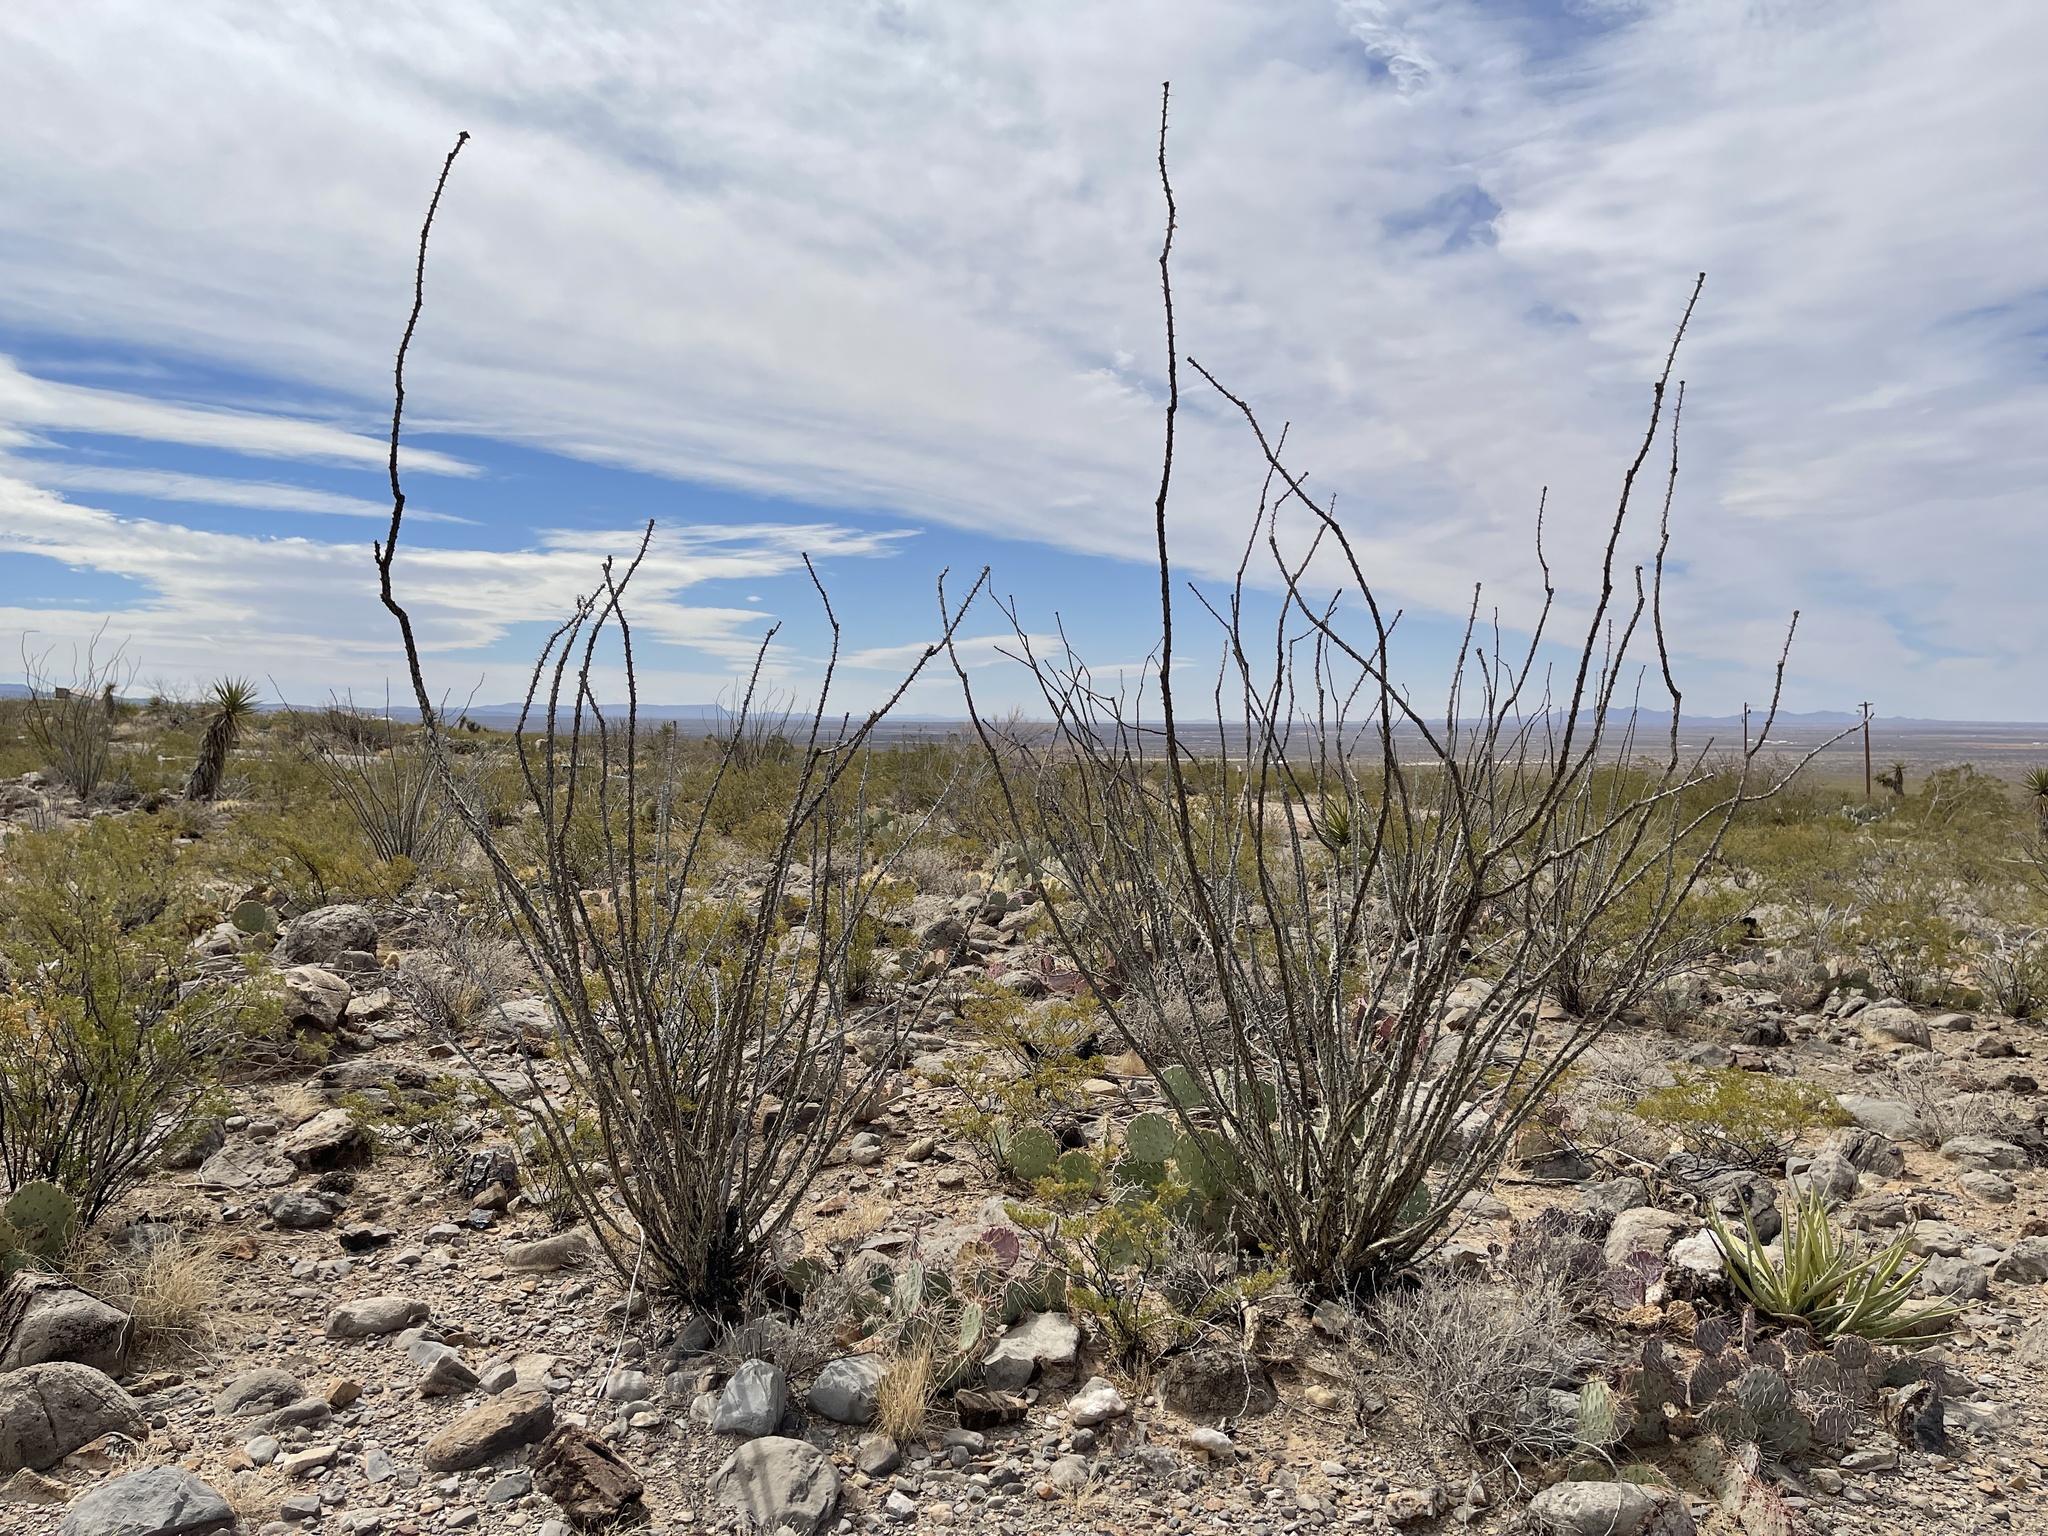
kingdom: Plantae
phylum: Tracheophyta
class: Magnoliopsida
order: Ericales
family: Fouquieriaceae
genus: Fouquieria
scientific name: Fouquieria splendens
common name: Vine-cactus
